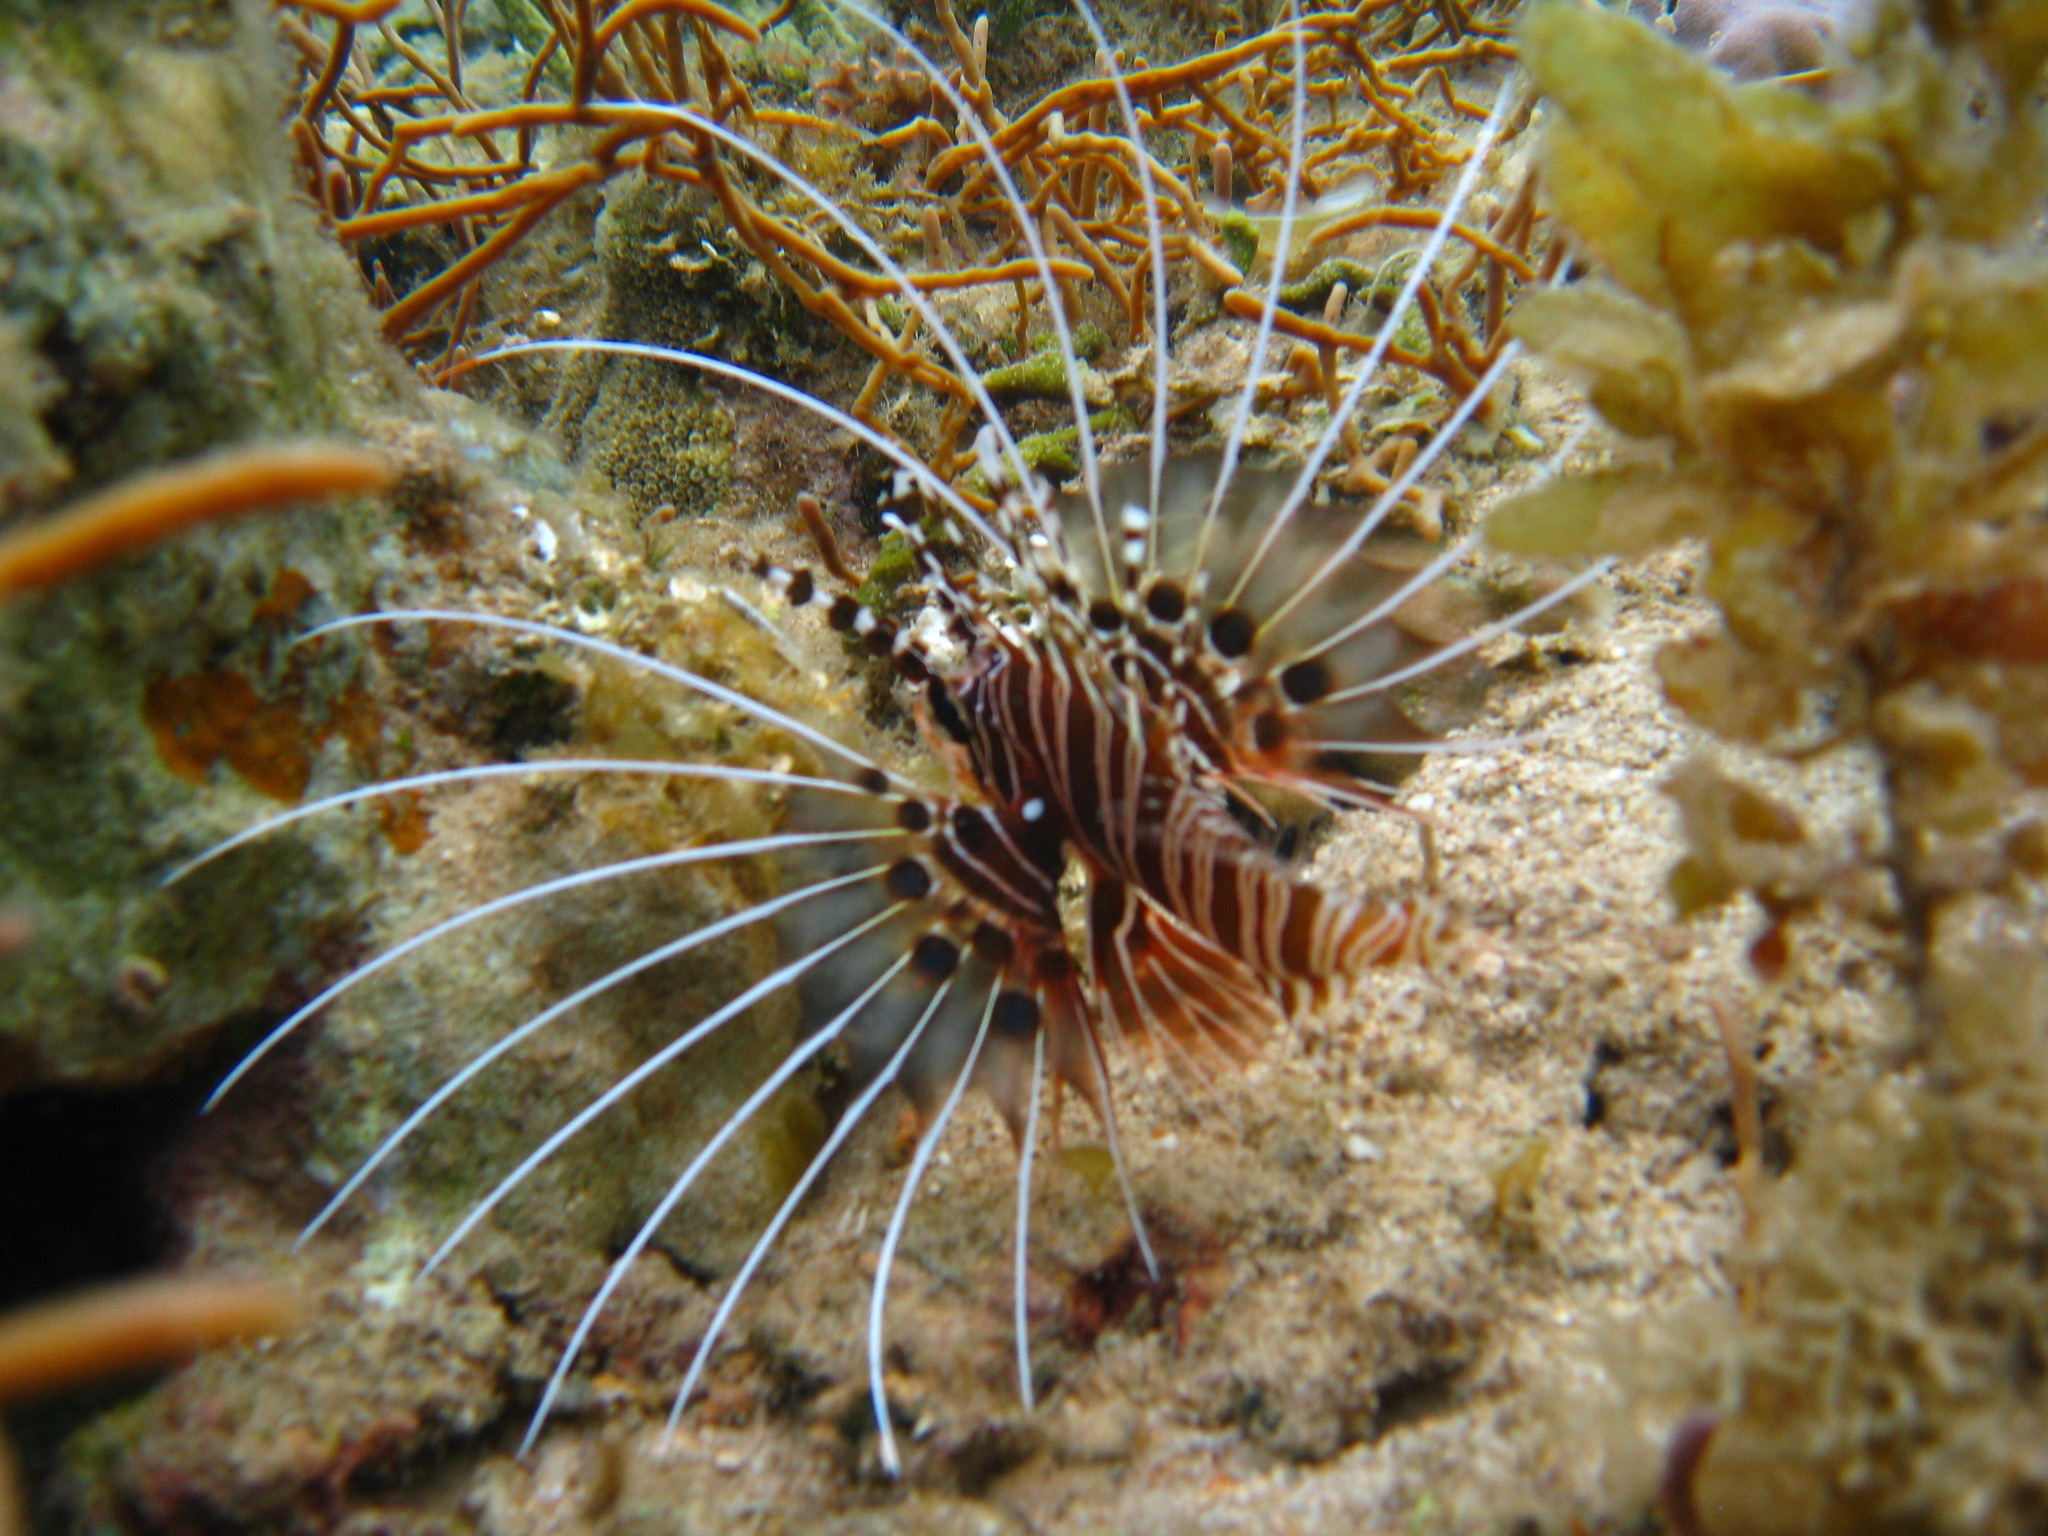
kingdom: Animalia
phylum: Chordata
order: Scorpaeniformes
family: Scorpaenidae
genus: Pterois
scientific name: Pterois antennata
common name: Spotfin lionfish
